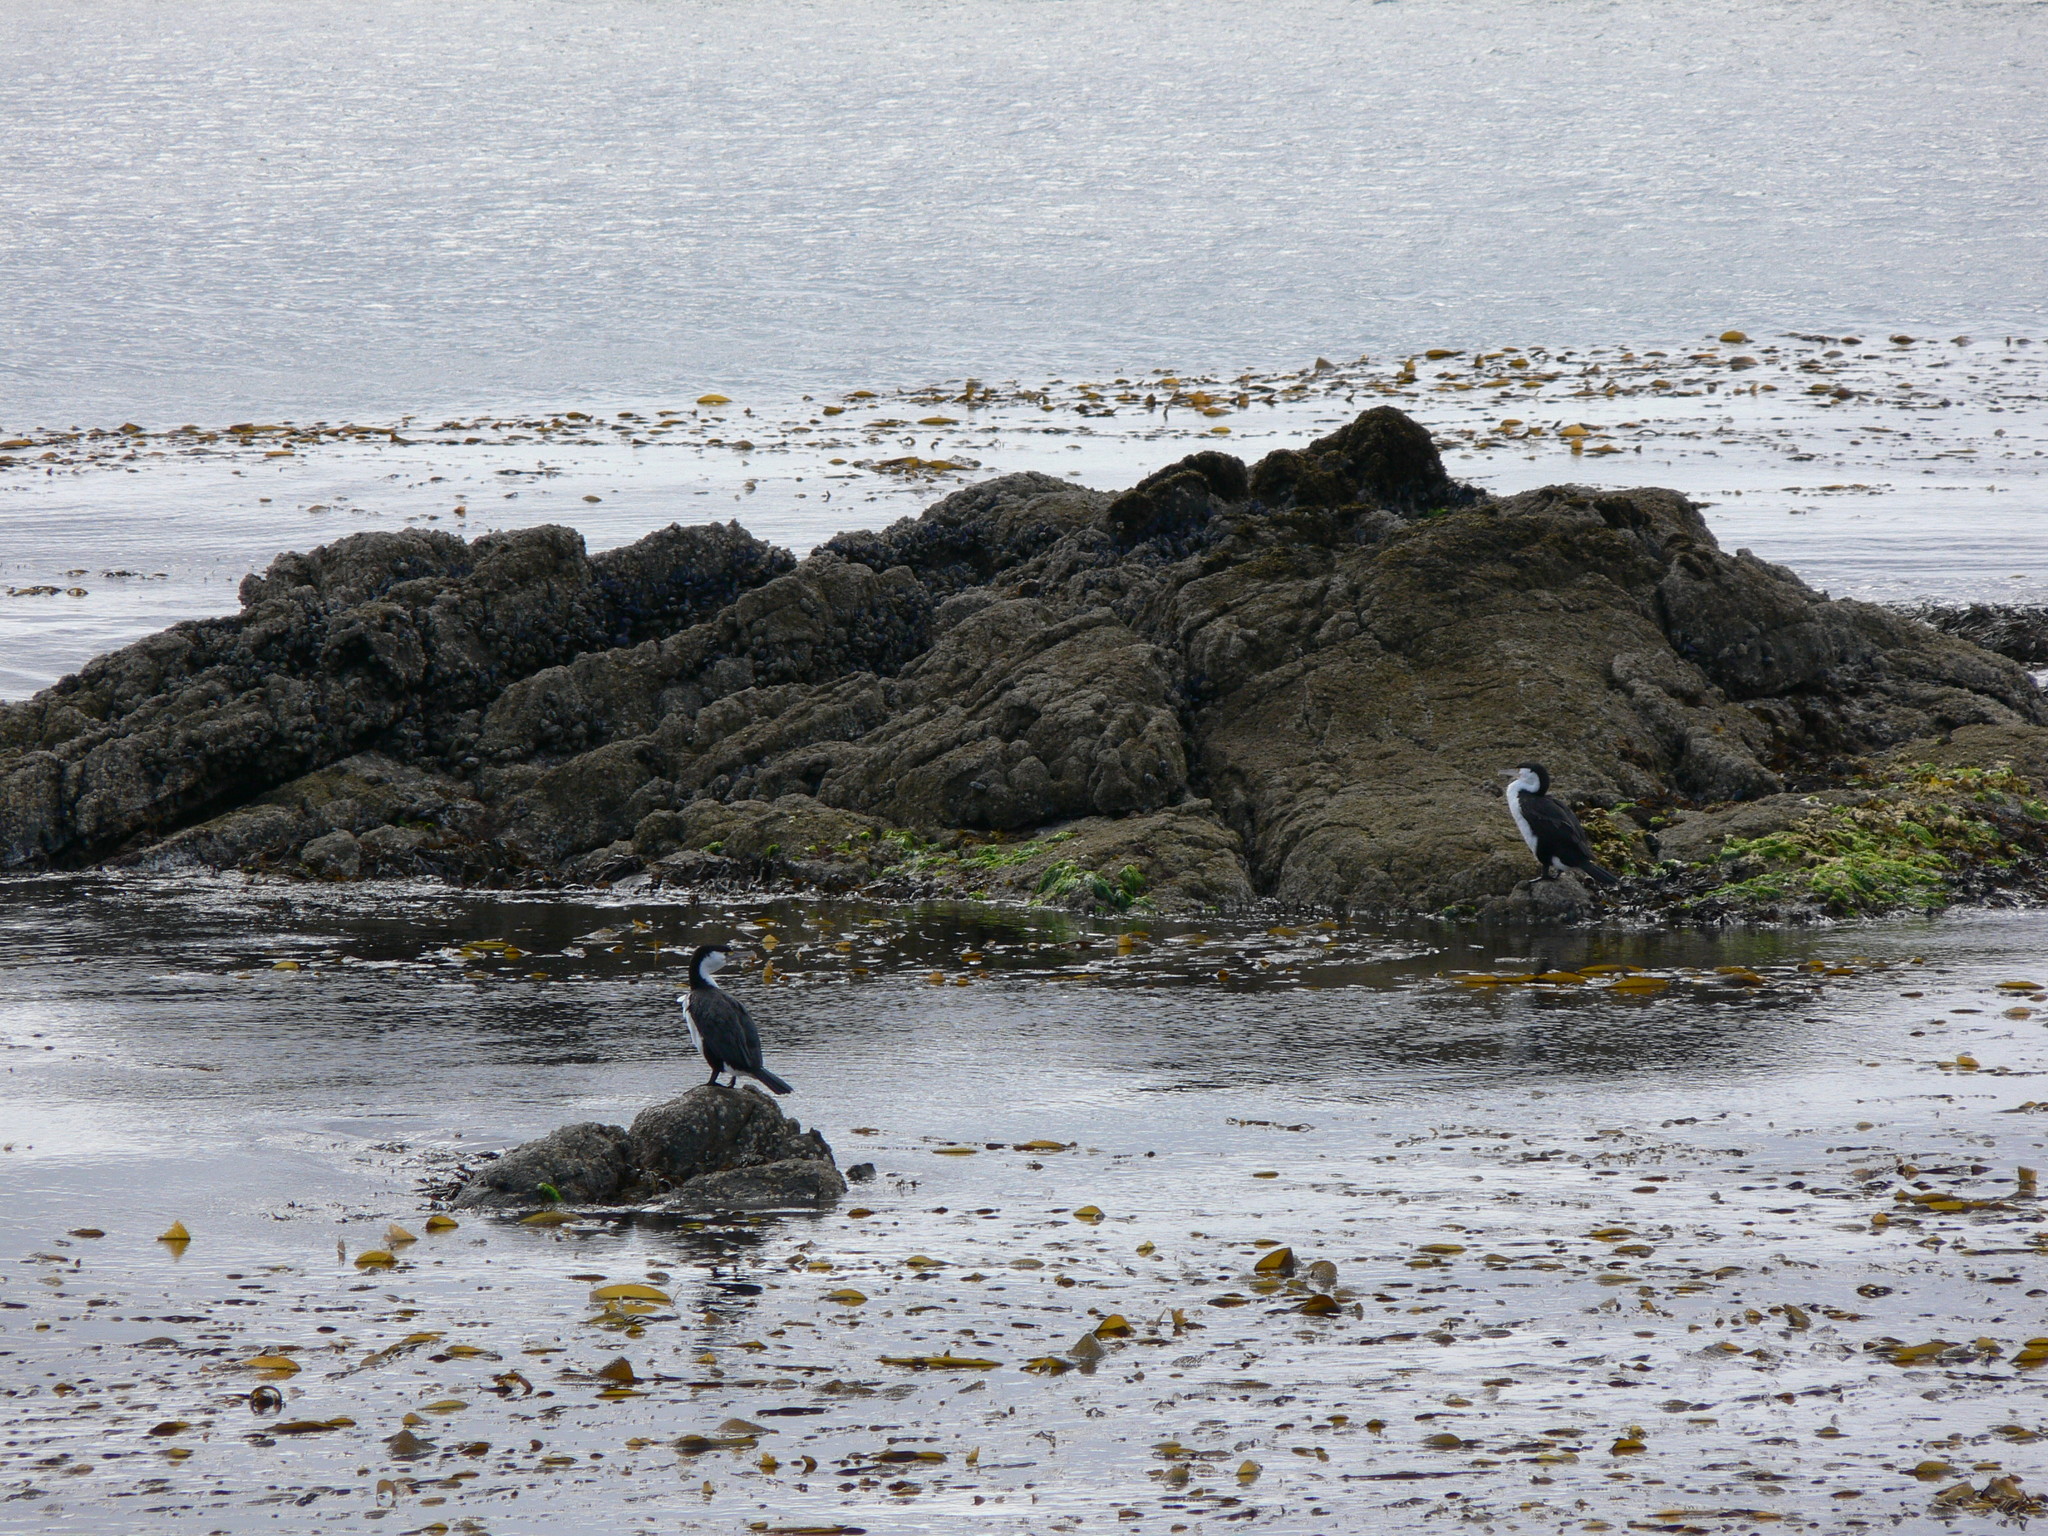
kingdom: Animalia
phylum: Chordata
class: Aves
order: Suliformes
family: Phalacrocoracidae
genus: Phalacrocorax
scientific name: Phalacrocorax varius
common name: Pied cormorant
